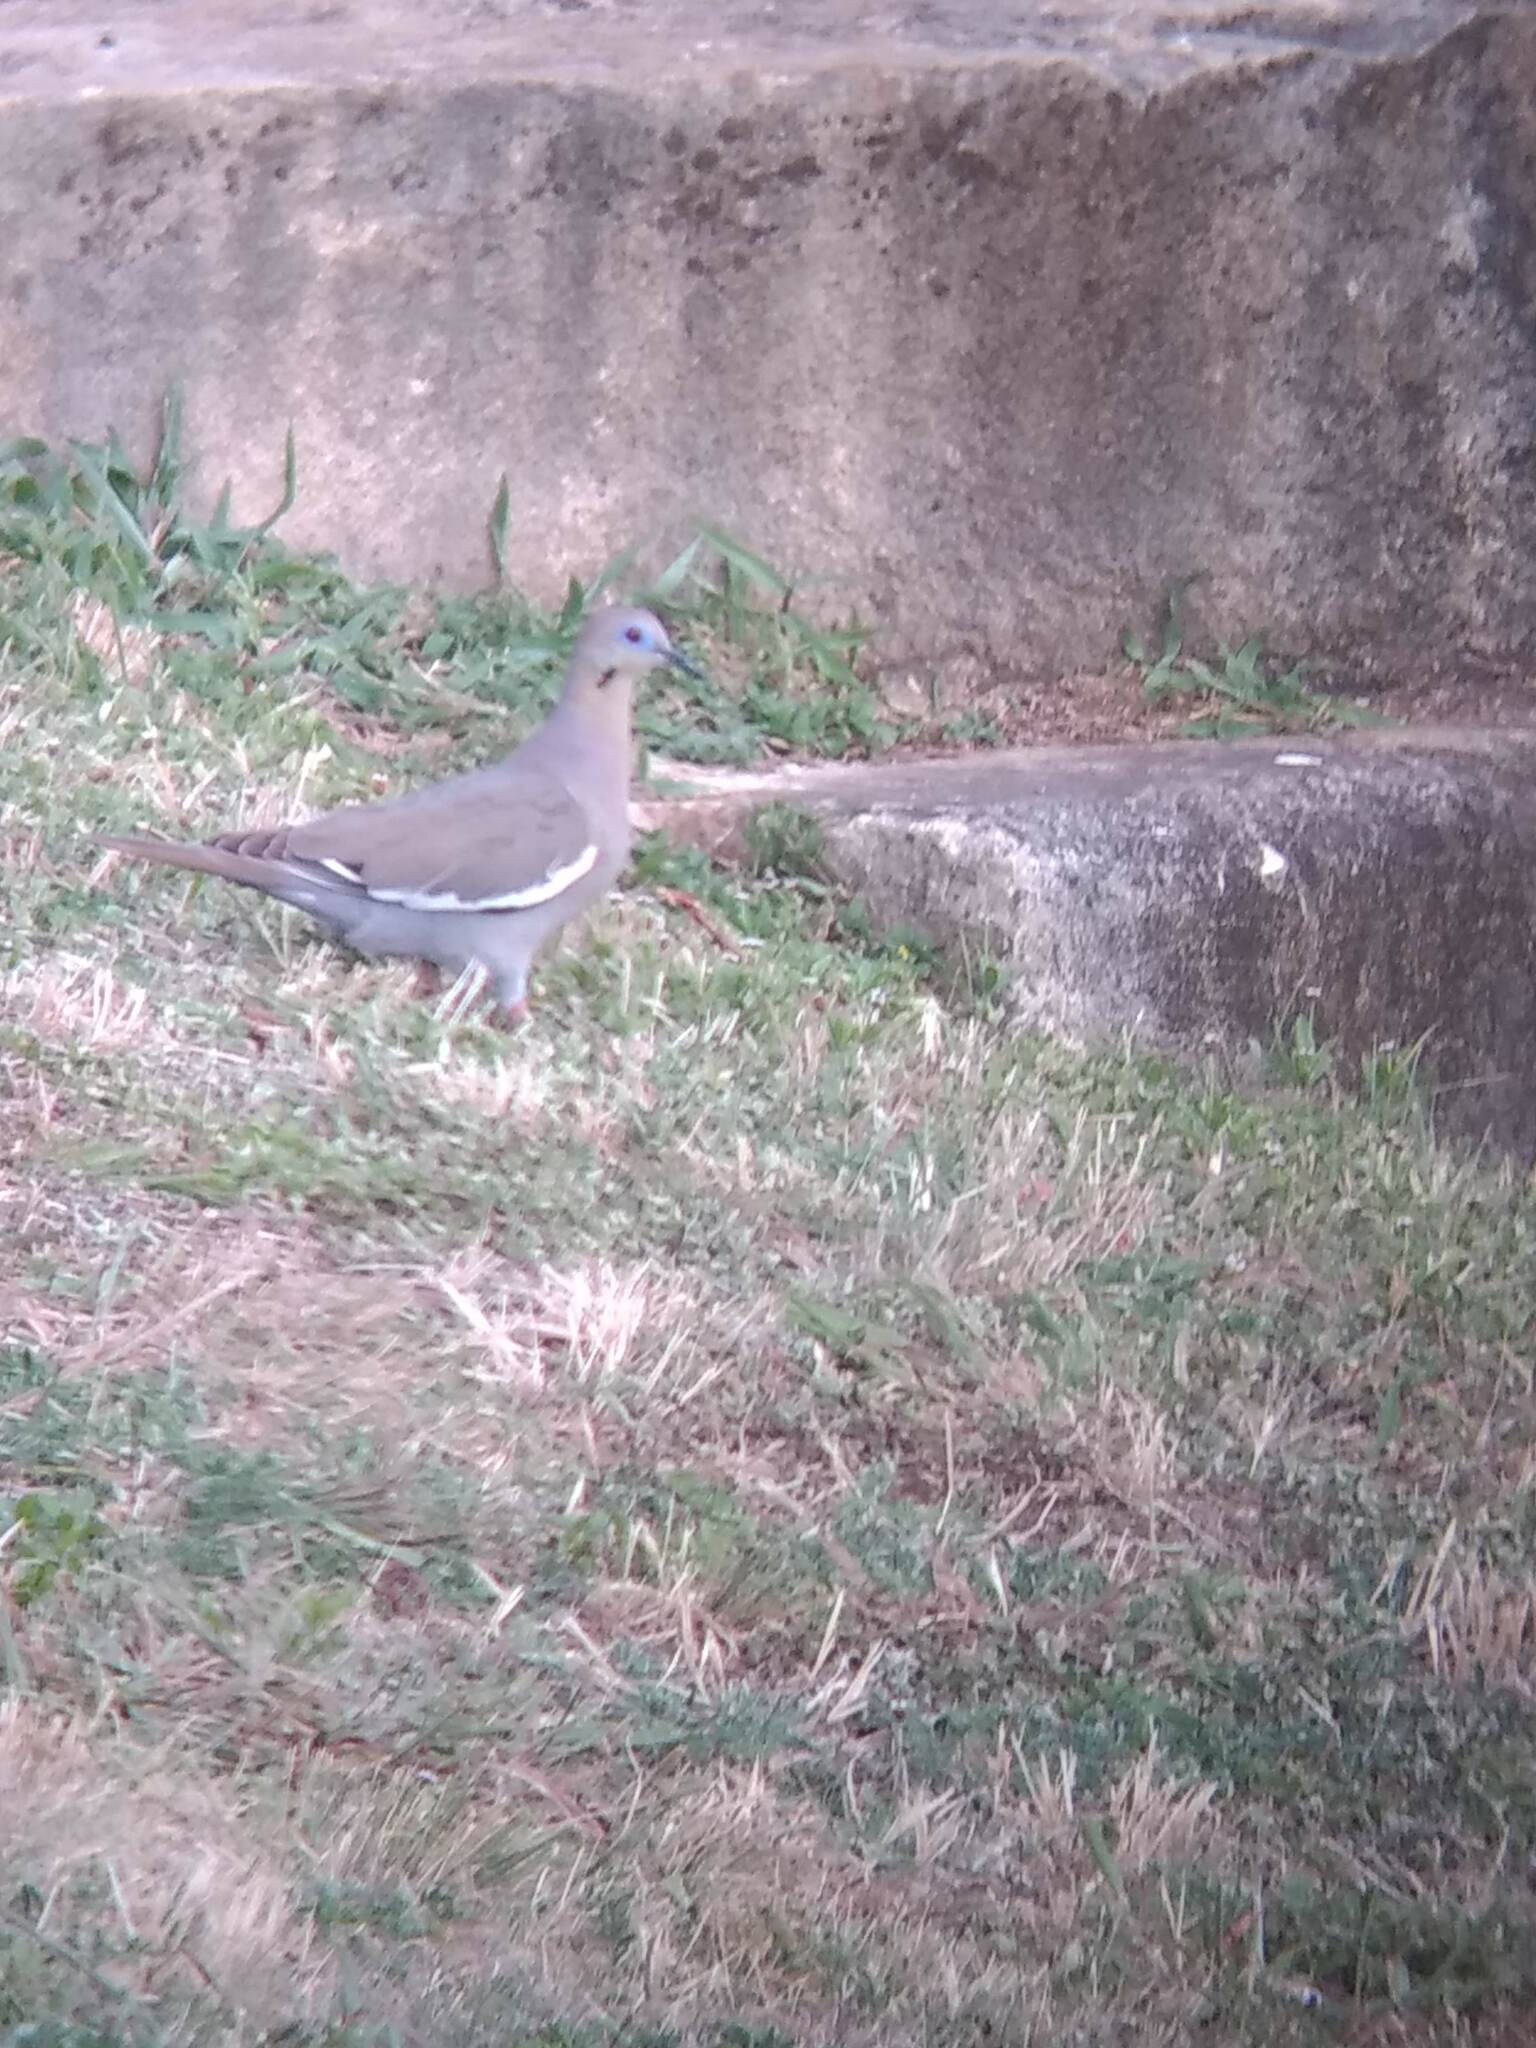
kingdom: Animalia
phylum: Chordata
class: Aves
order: Columbiformes
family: Columbidae
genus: Zenaida
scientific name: Zenaida asiatica
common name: White-winged dove
